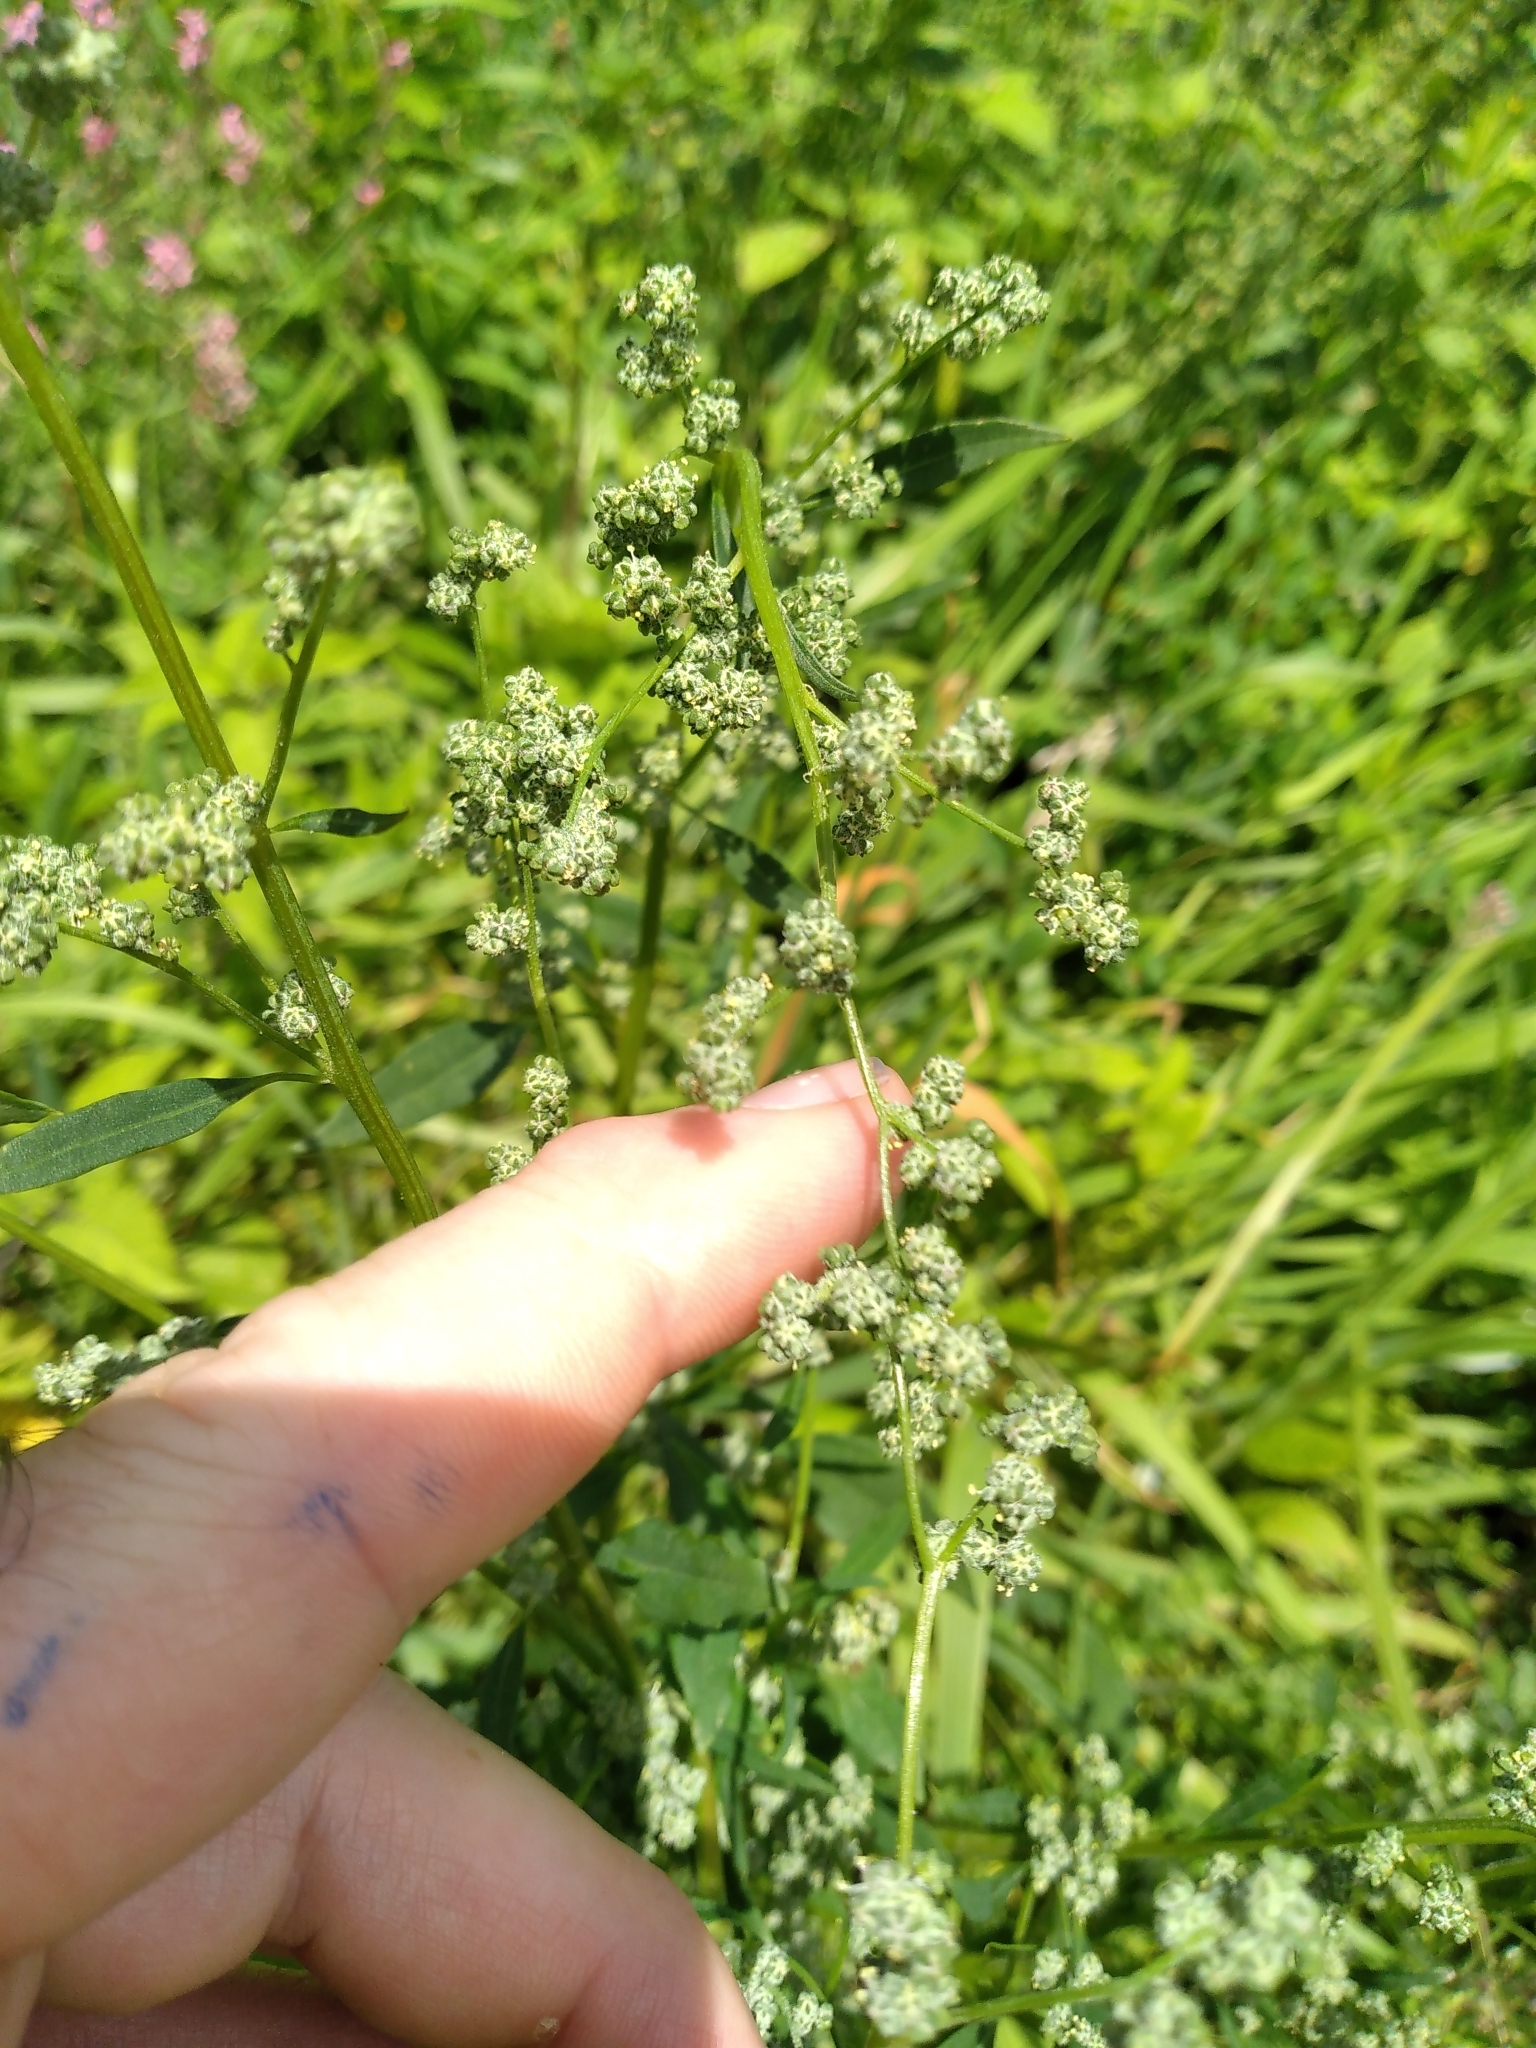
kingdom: Plantae
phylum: Tracheophyta
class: Magnoliopsida
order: Caryophyllales
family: Amaranthaceae
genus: Chenopodium
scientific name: Chenopodium album
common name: Fat-hen
